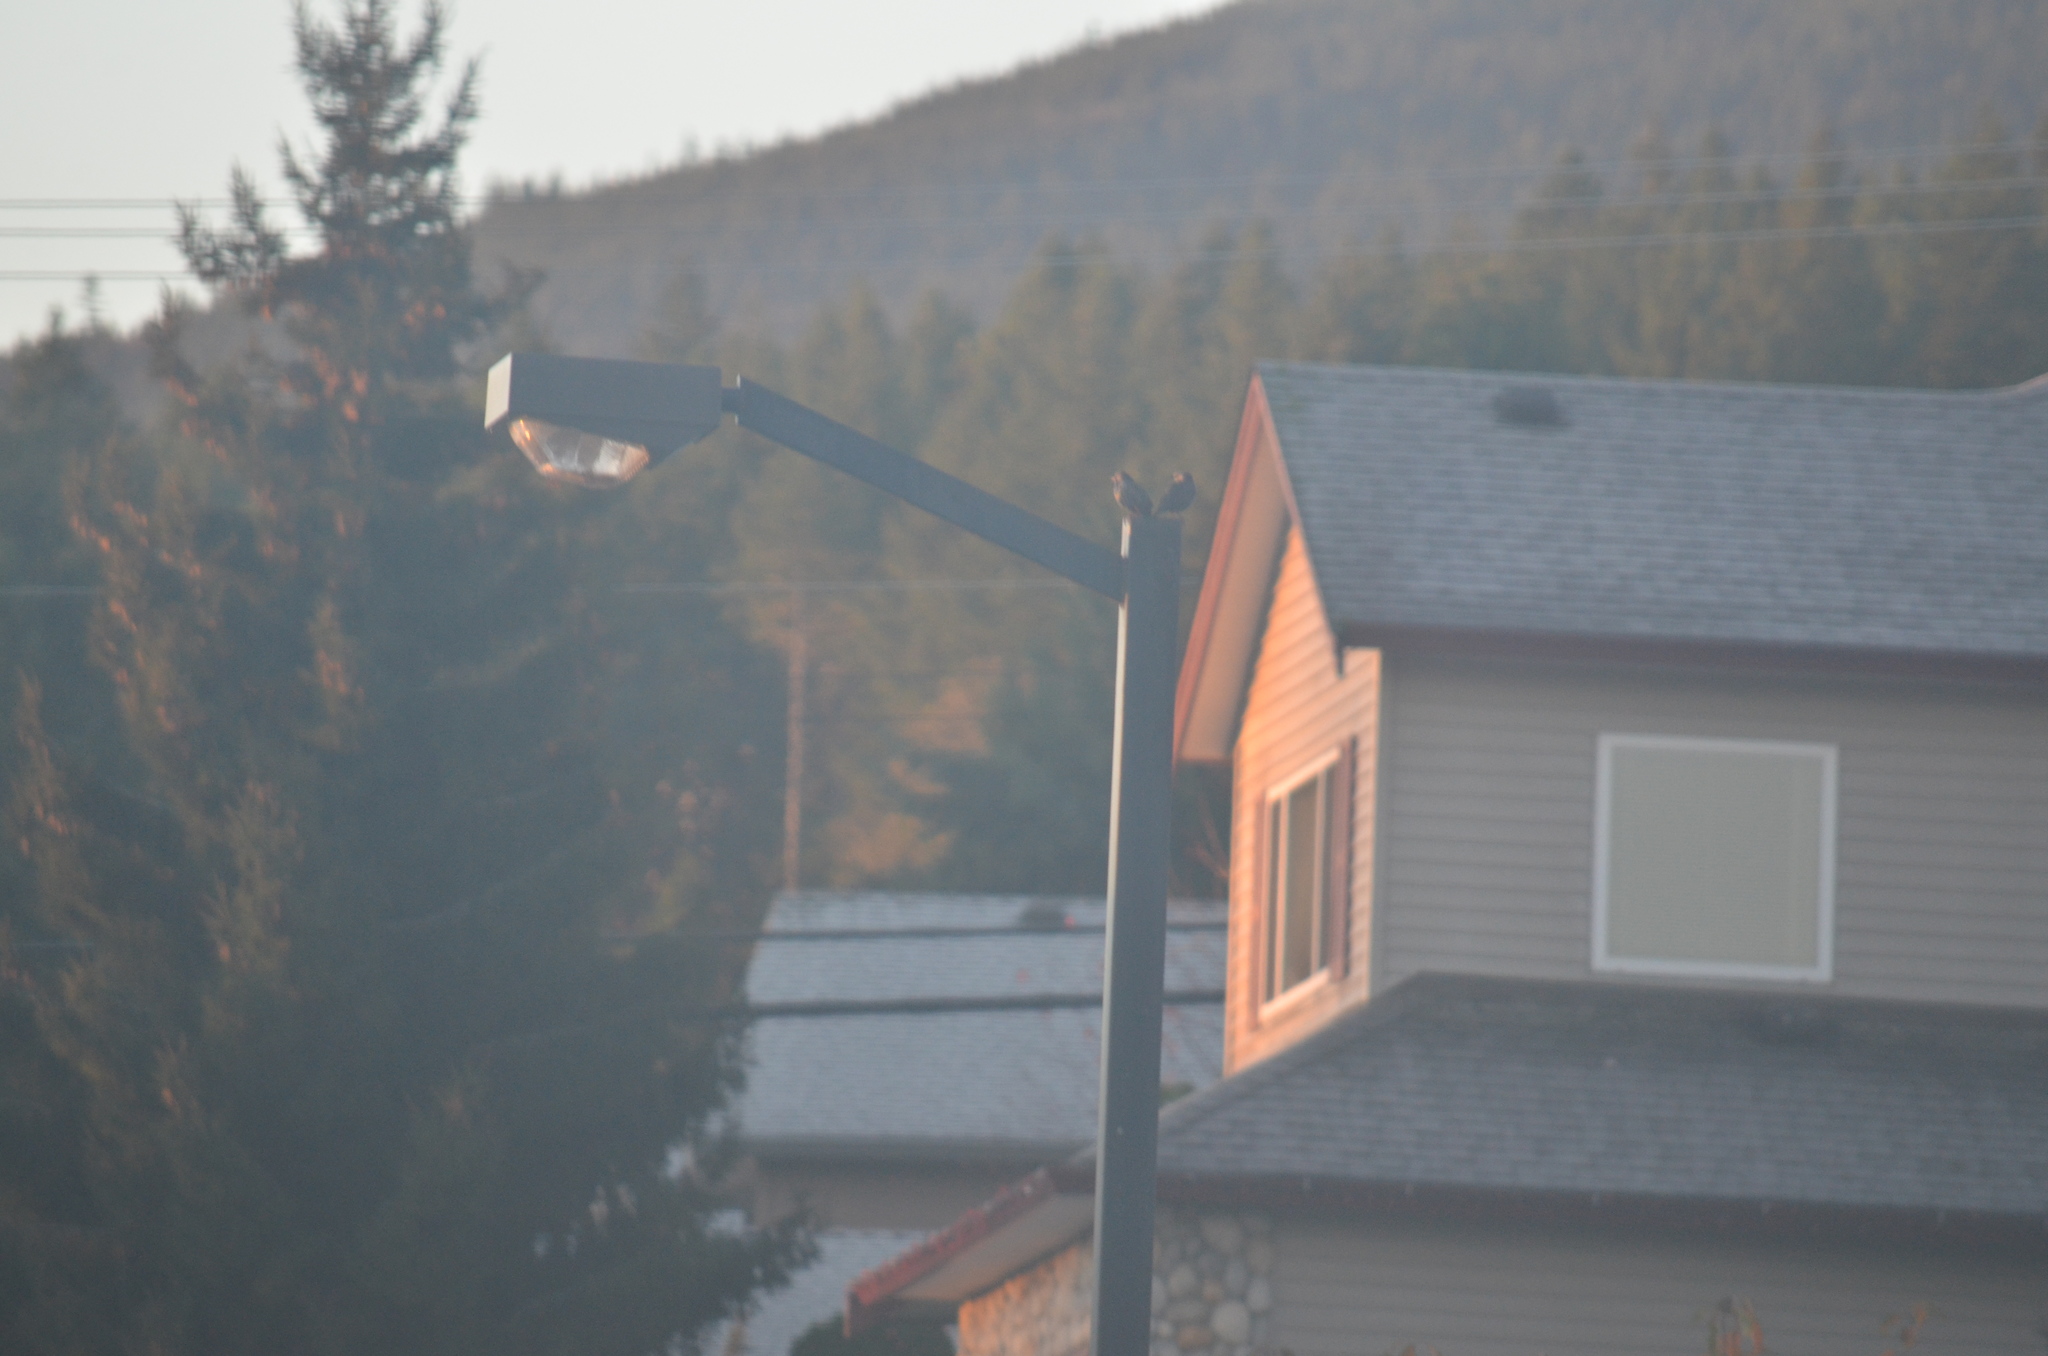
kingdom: Animalia
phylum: Chordata
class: Aves
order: Passeriformes
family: Sturnidae
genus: Sturnus
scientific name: Sturnus vulgaris
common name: Common starling
